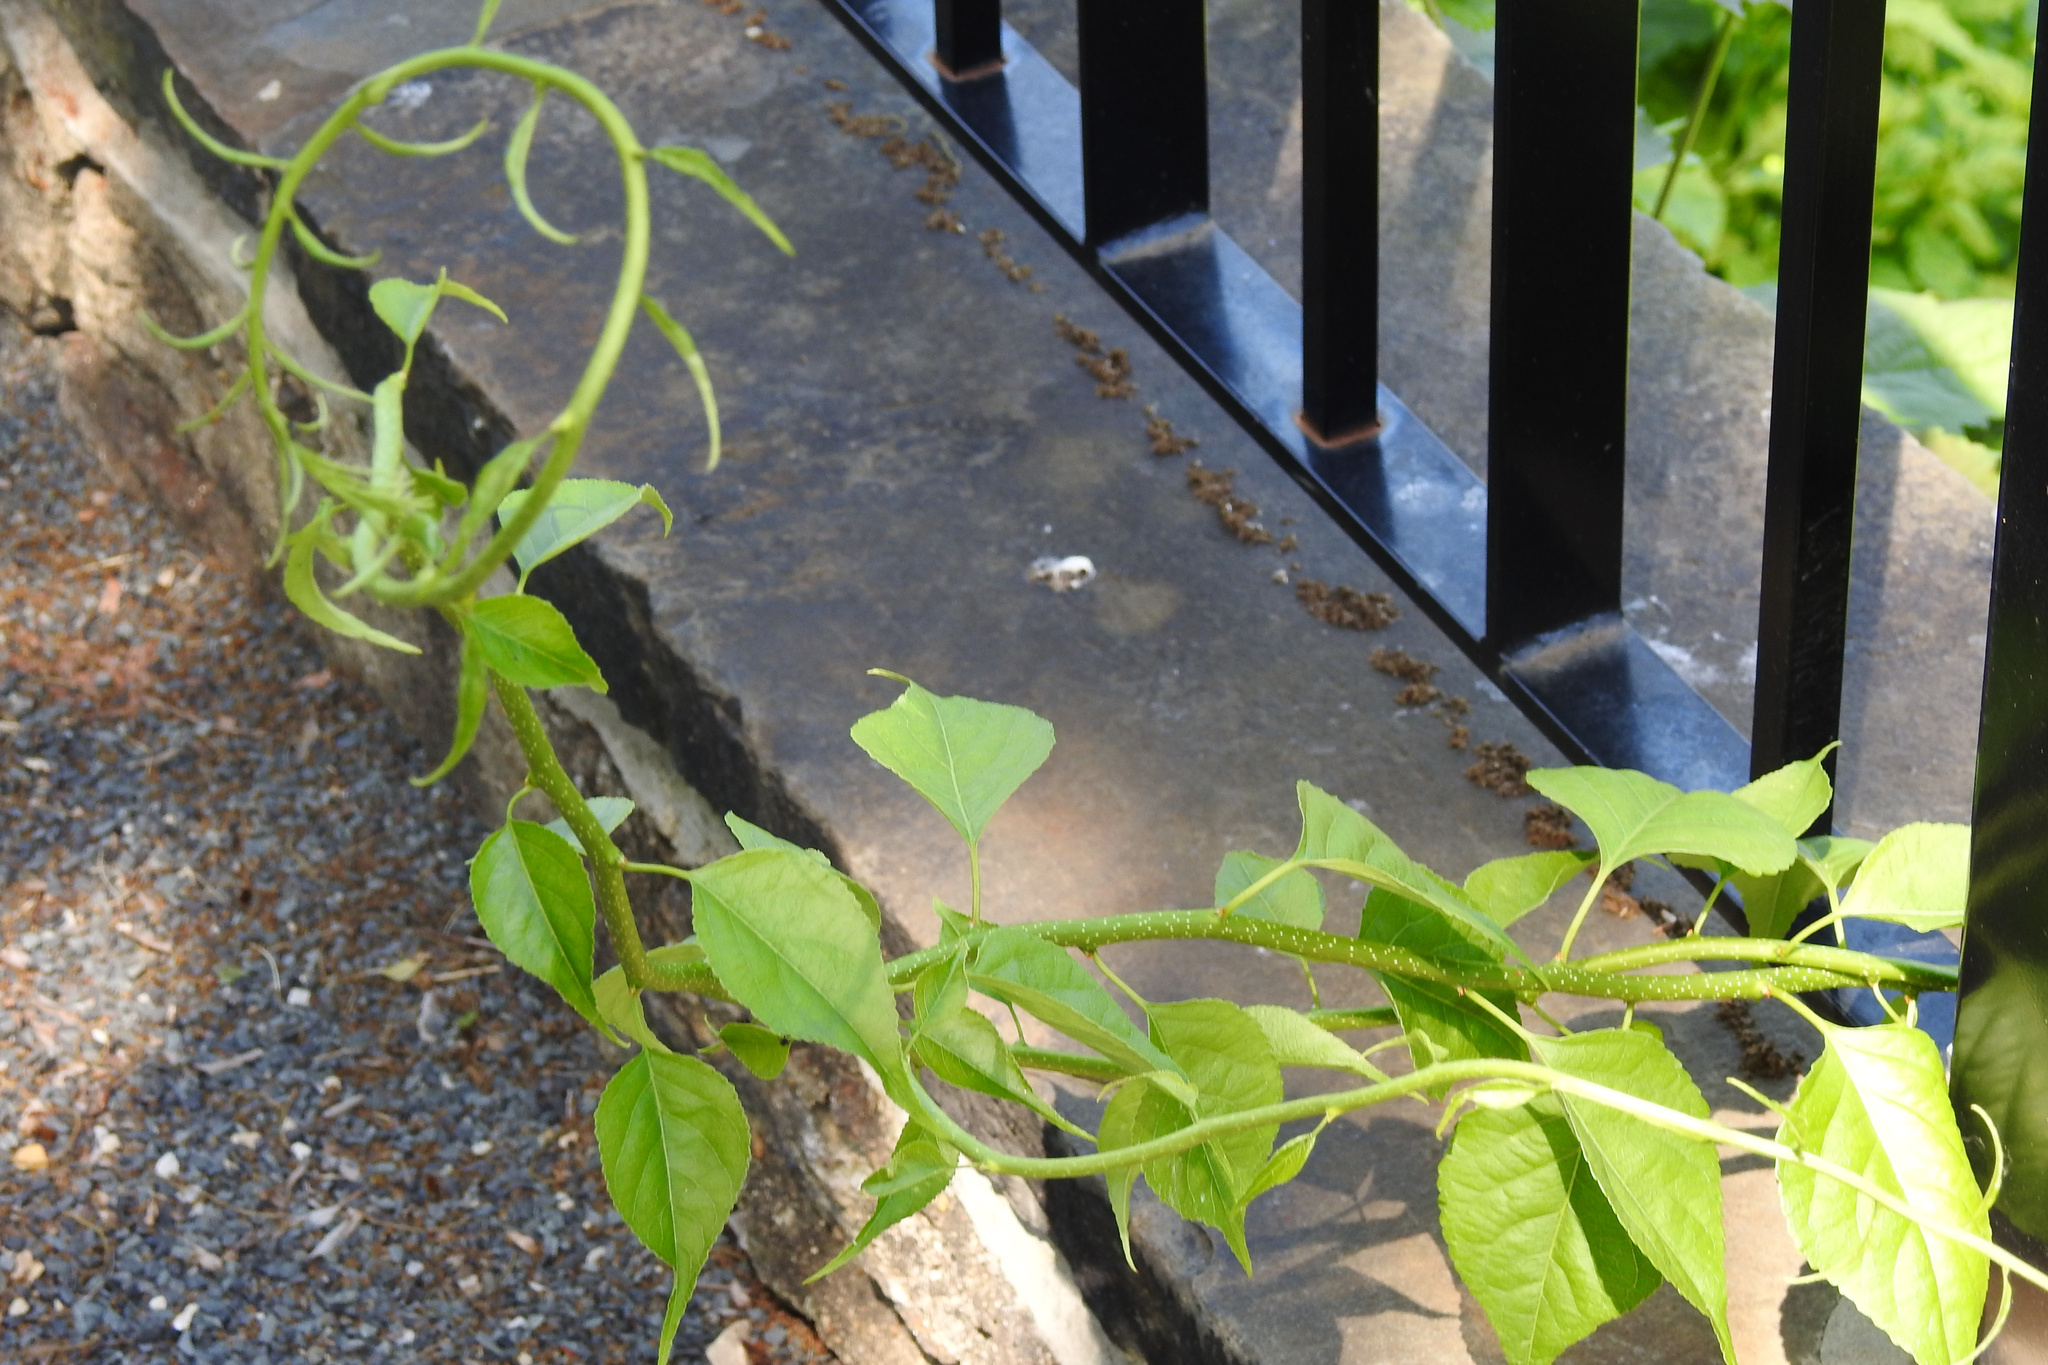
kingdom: Plantae
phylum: Tracheophyta
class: Magnoliopsida
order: Celastrales
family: Celastraceae
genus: Celastrus
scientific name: Celastrus orbiculatus
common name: Oriental bittersweet
